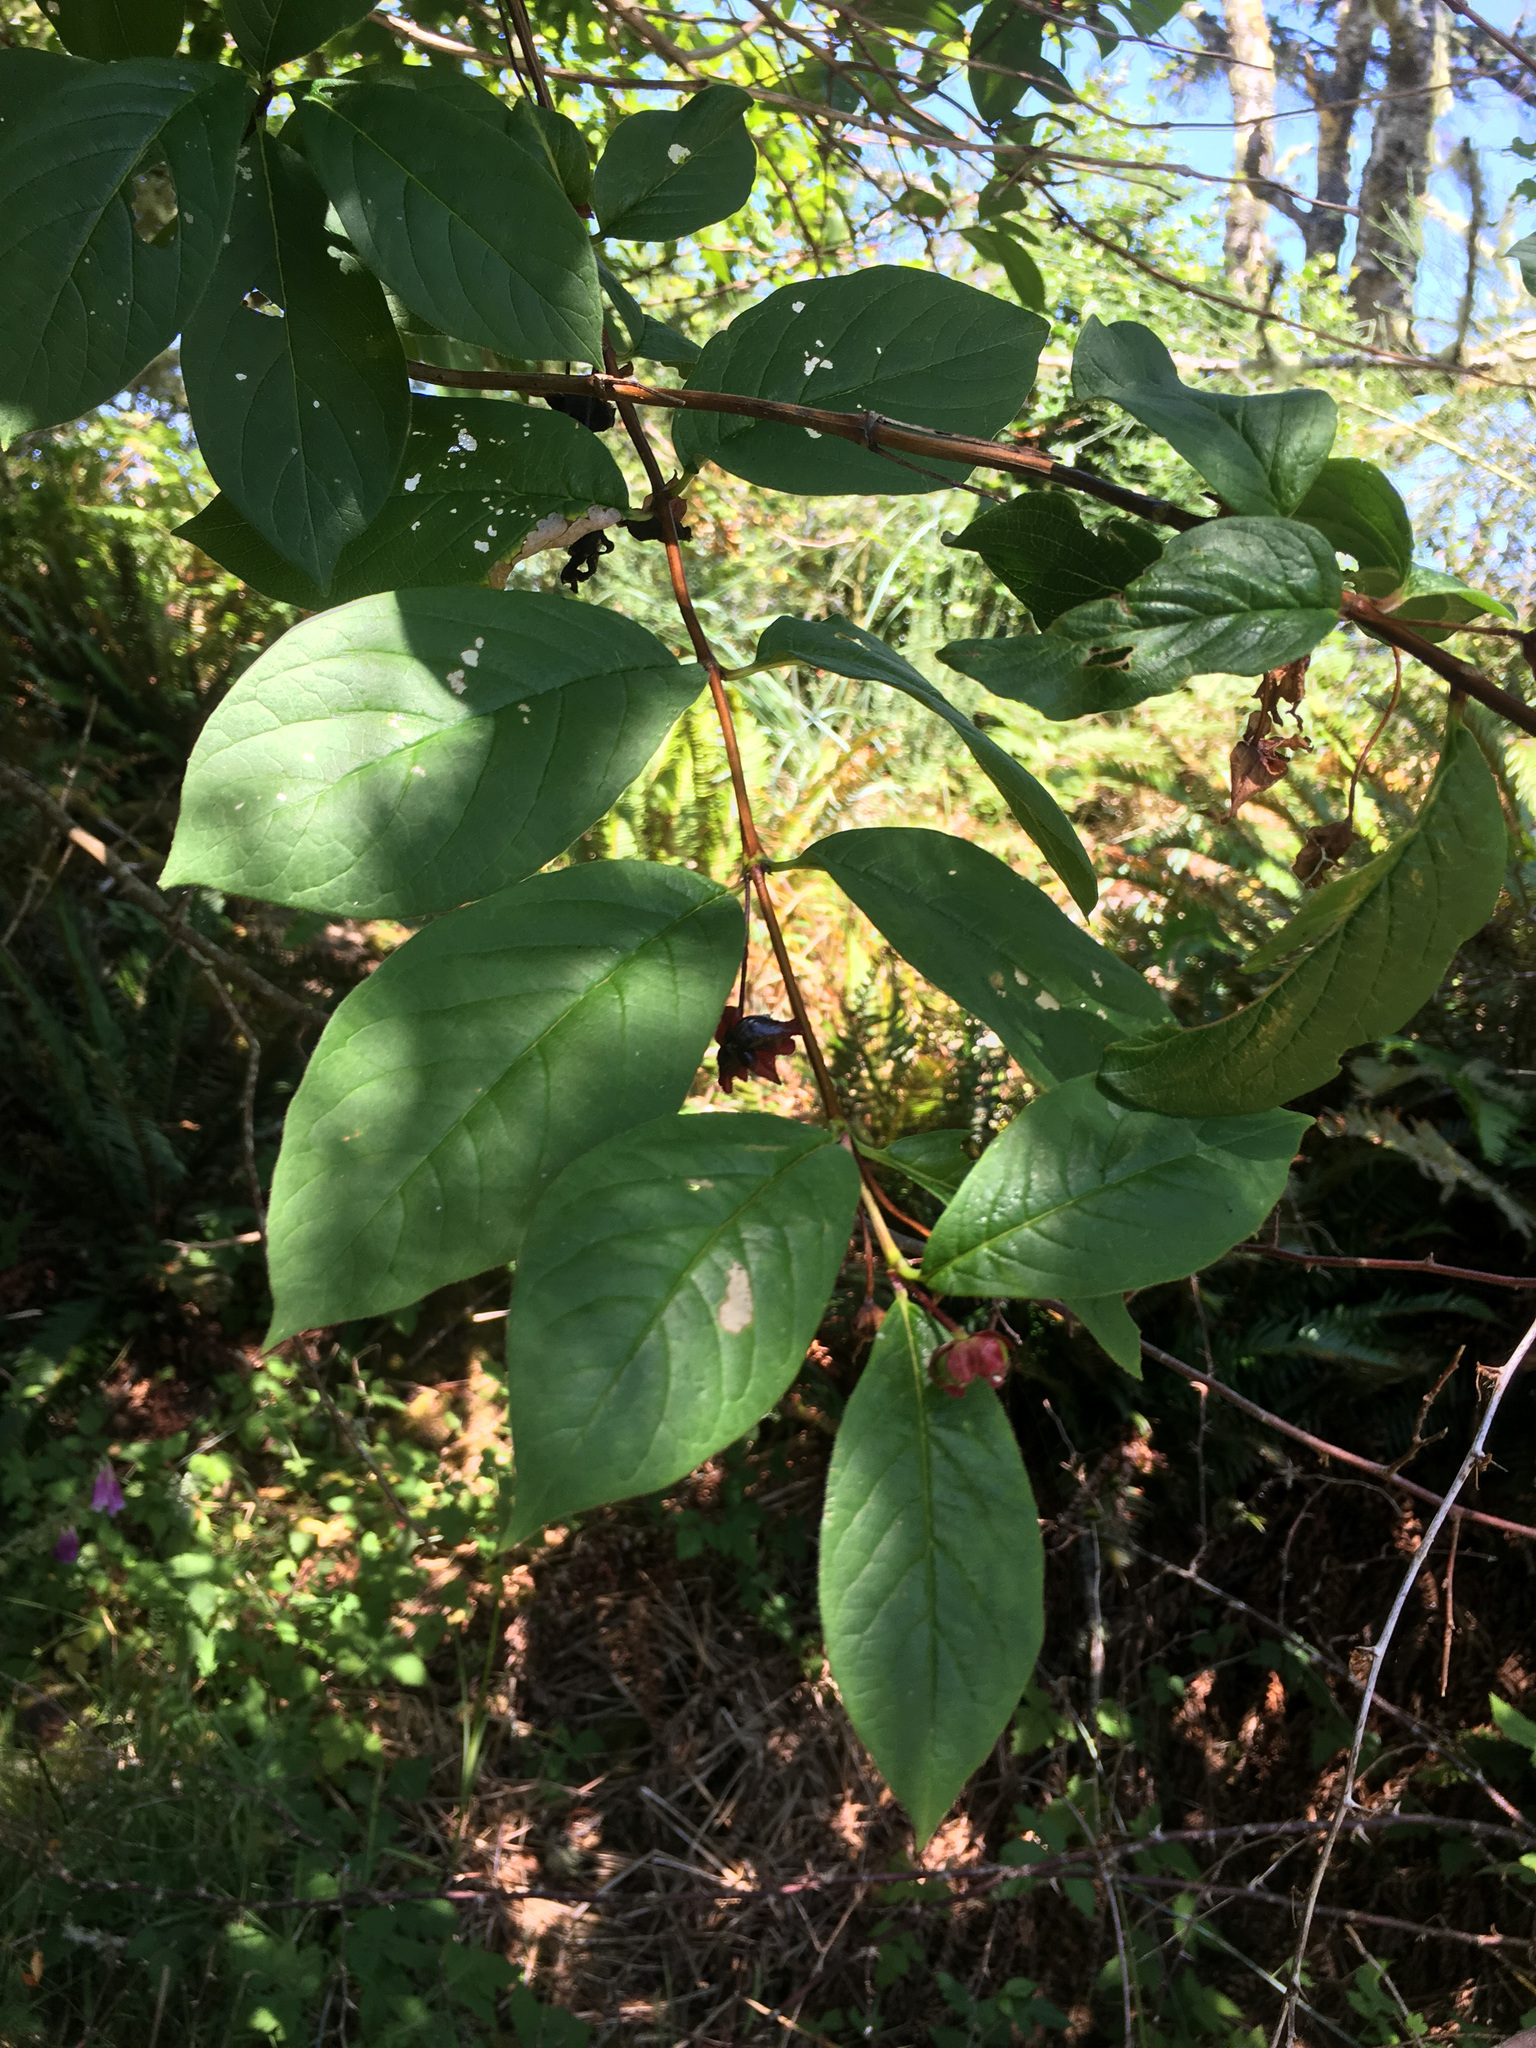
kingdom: Plantae
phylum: Tracheophyta
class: Magnoliopsida
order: Dipsacales
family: Caprifoliaceae
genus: Lonicera
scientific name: Lonicera involucrata
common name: Californian honeysuckle
